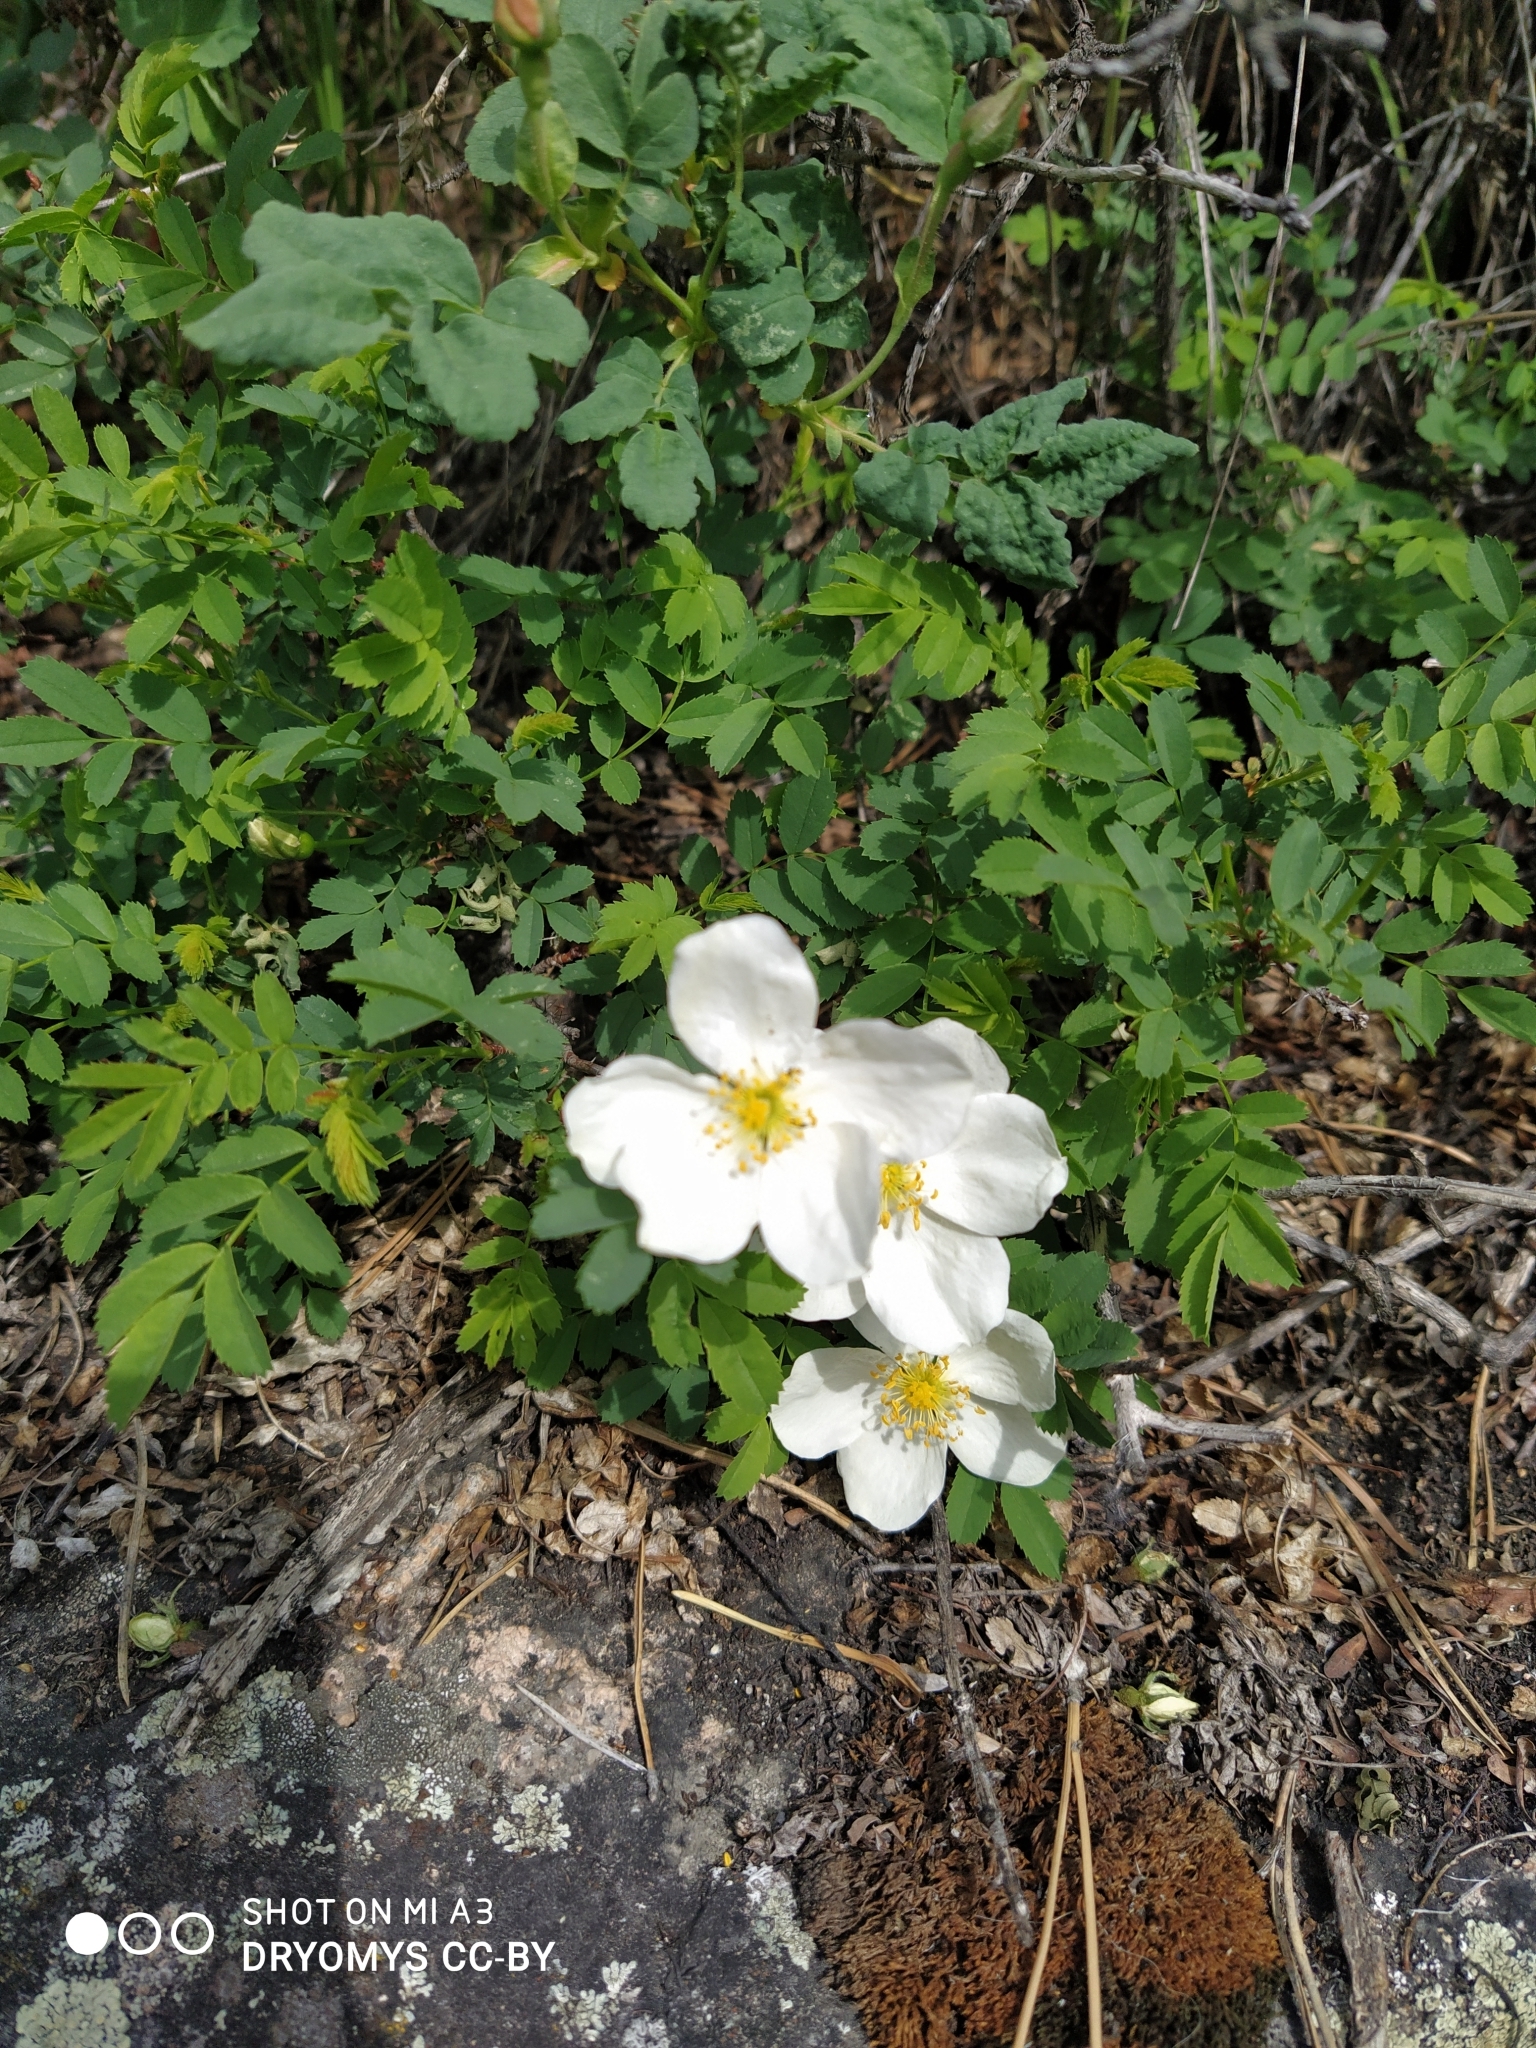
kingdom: Plantae
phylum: Tracheophyta
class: Magnoliopsida
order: Rosales
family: Rosaceae
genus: Rosa
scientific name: Rosa spinosissima
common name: Burnet rose
